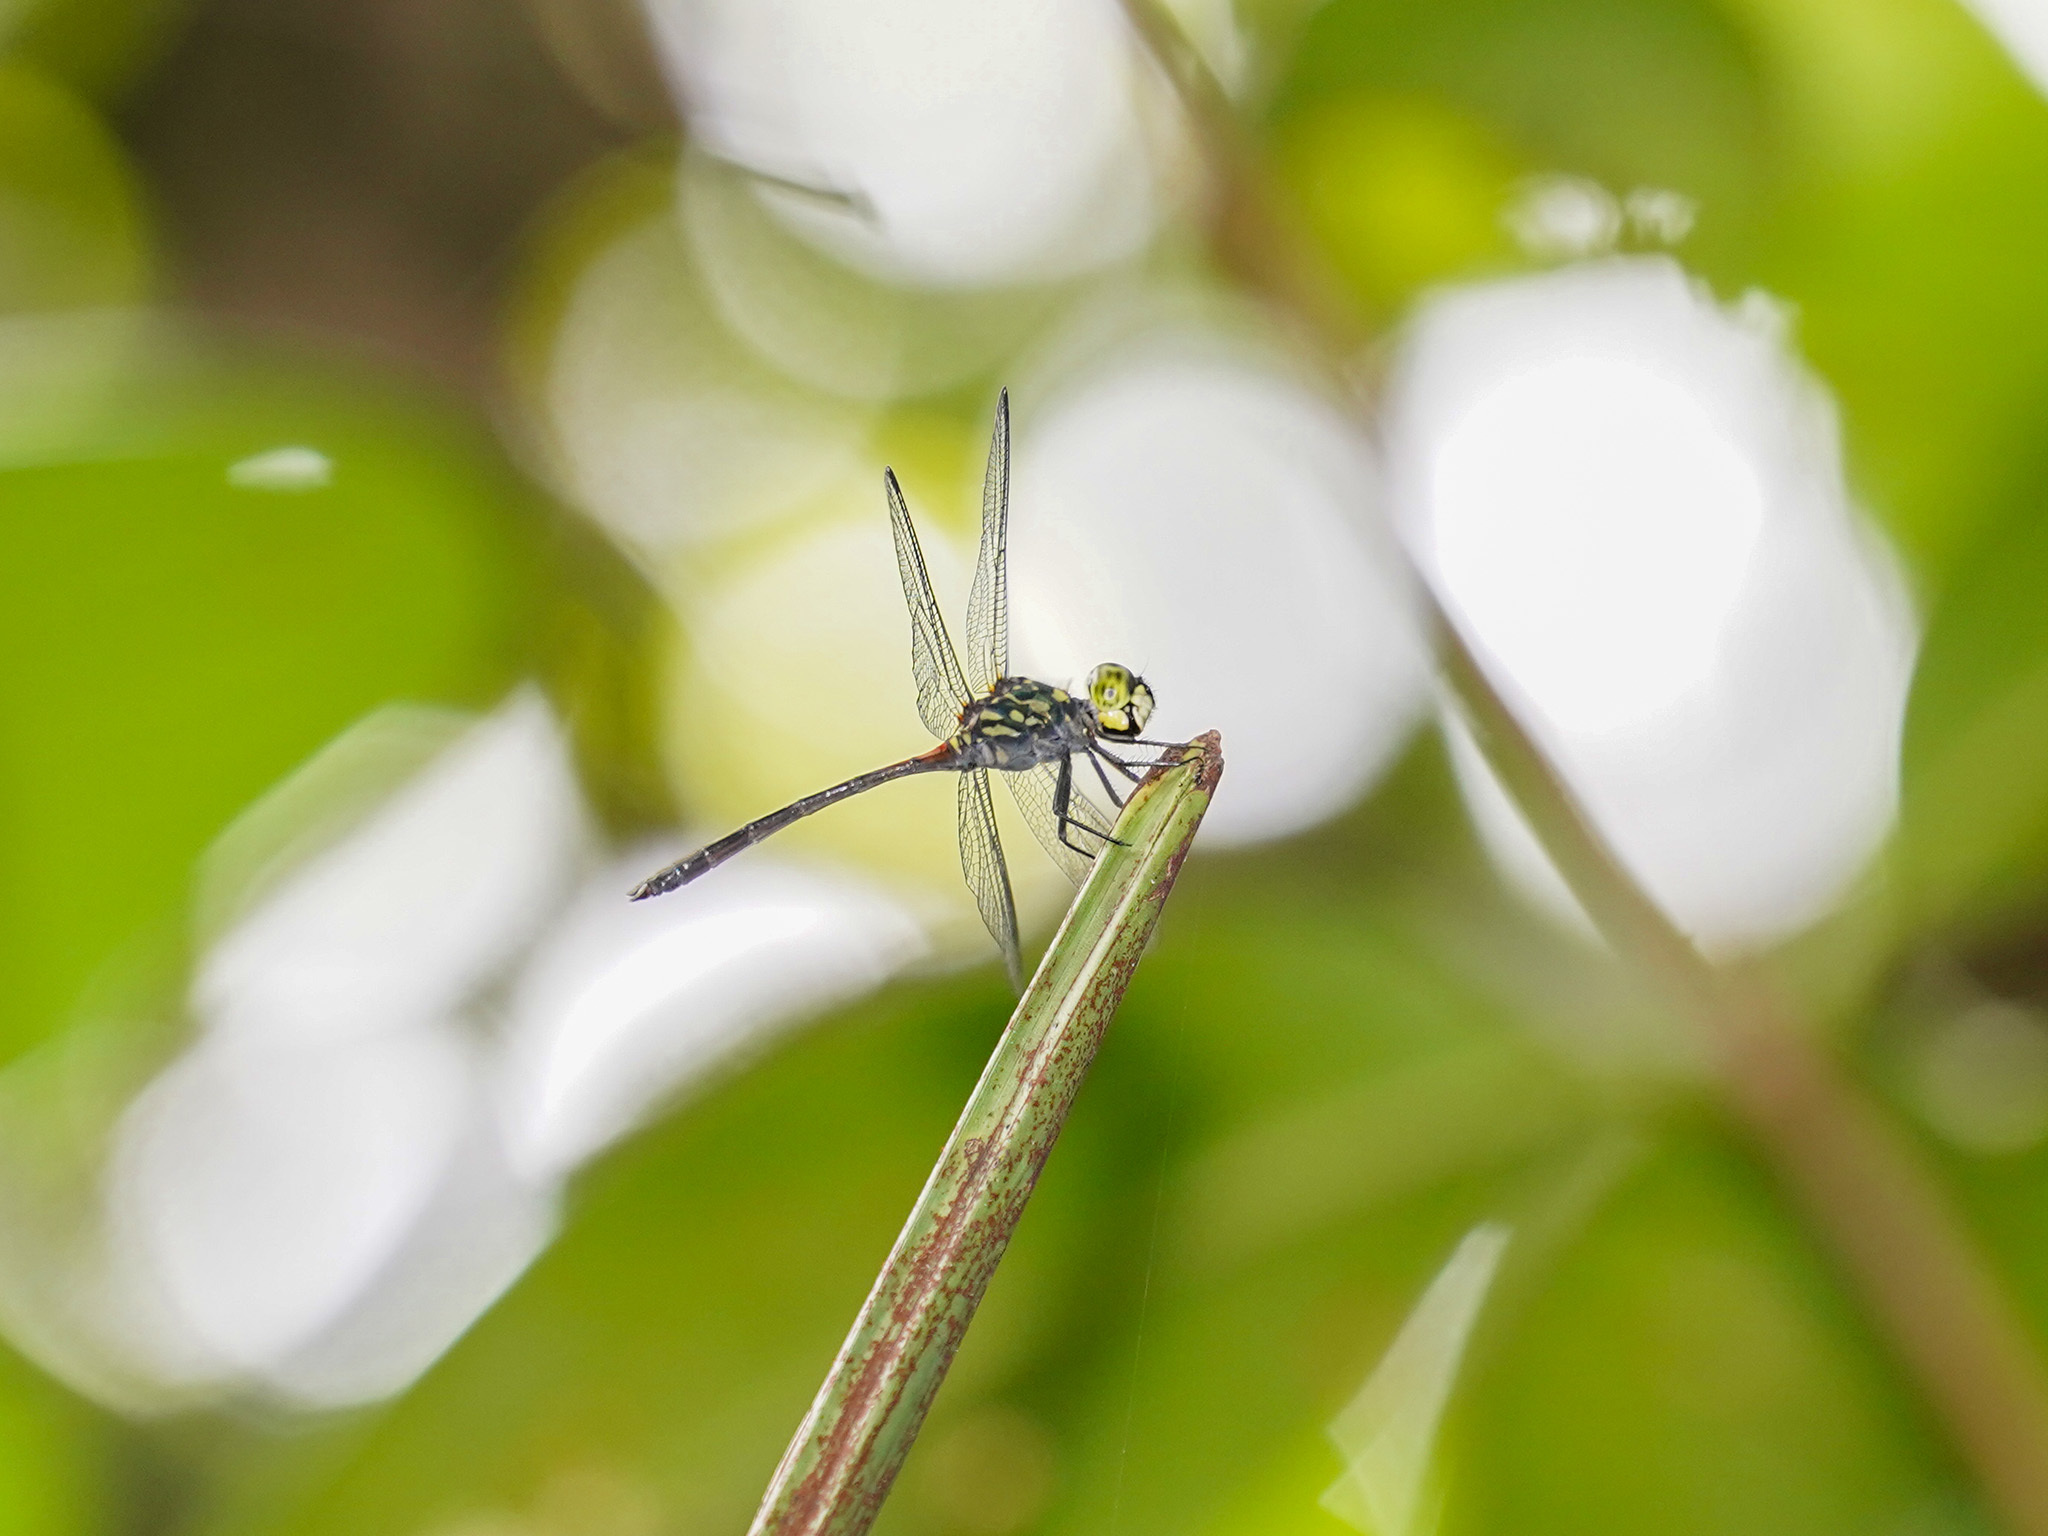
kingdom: Animalia
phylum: Arthropoda
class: Insecta
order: Odonata
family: Libellulidae
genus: Agrionoptera
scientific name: Agrionoptera insignis
